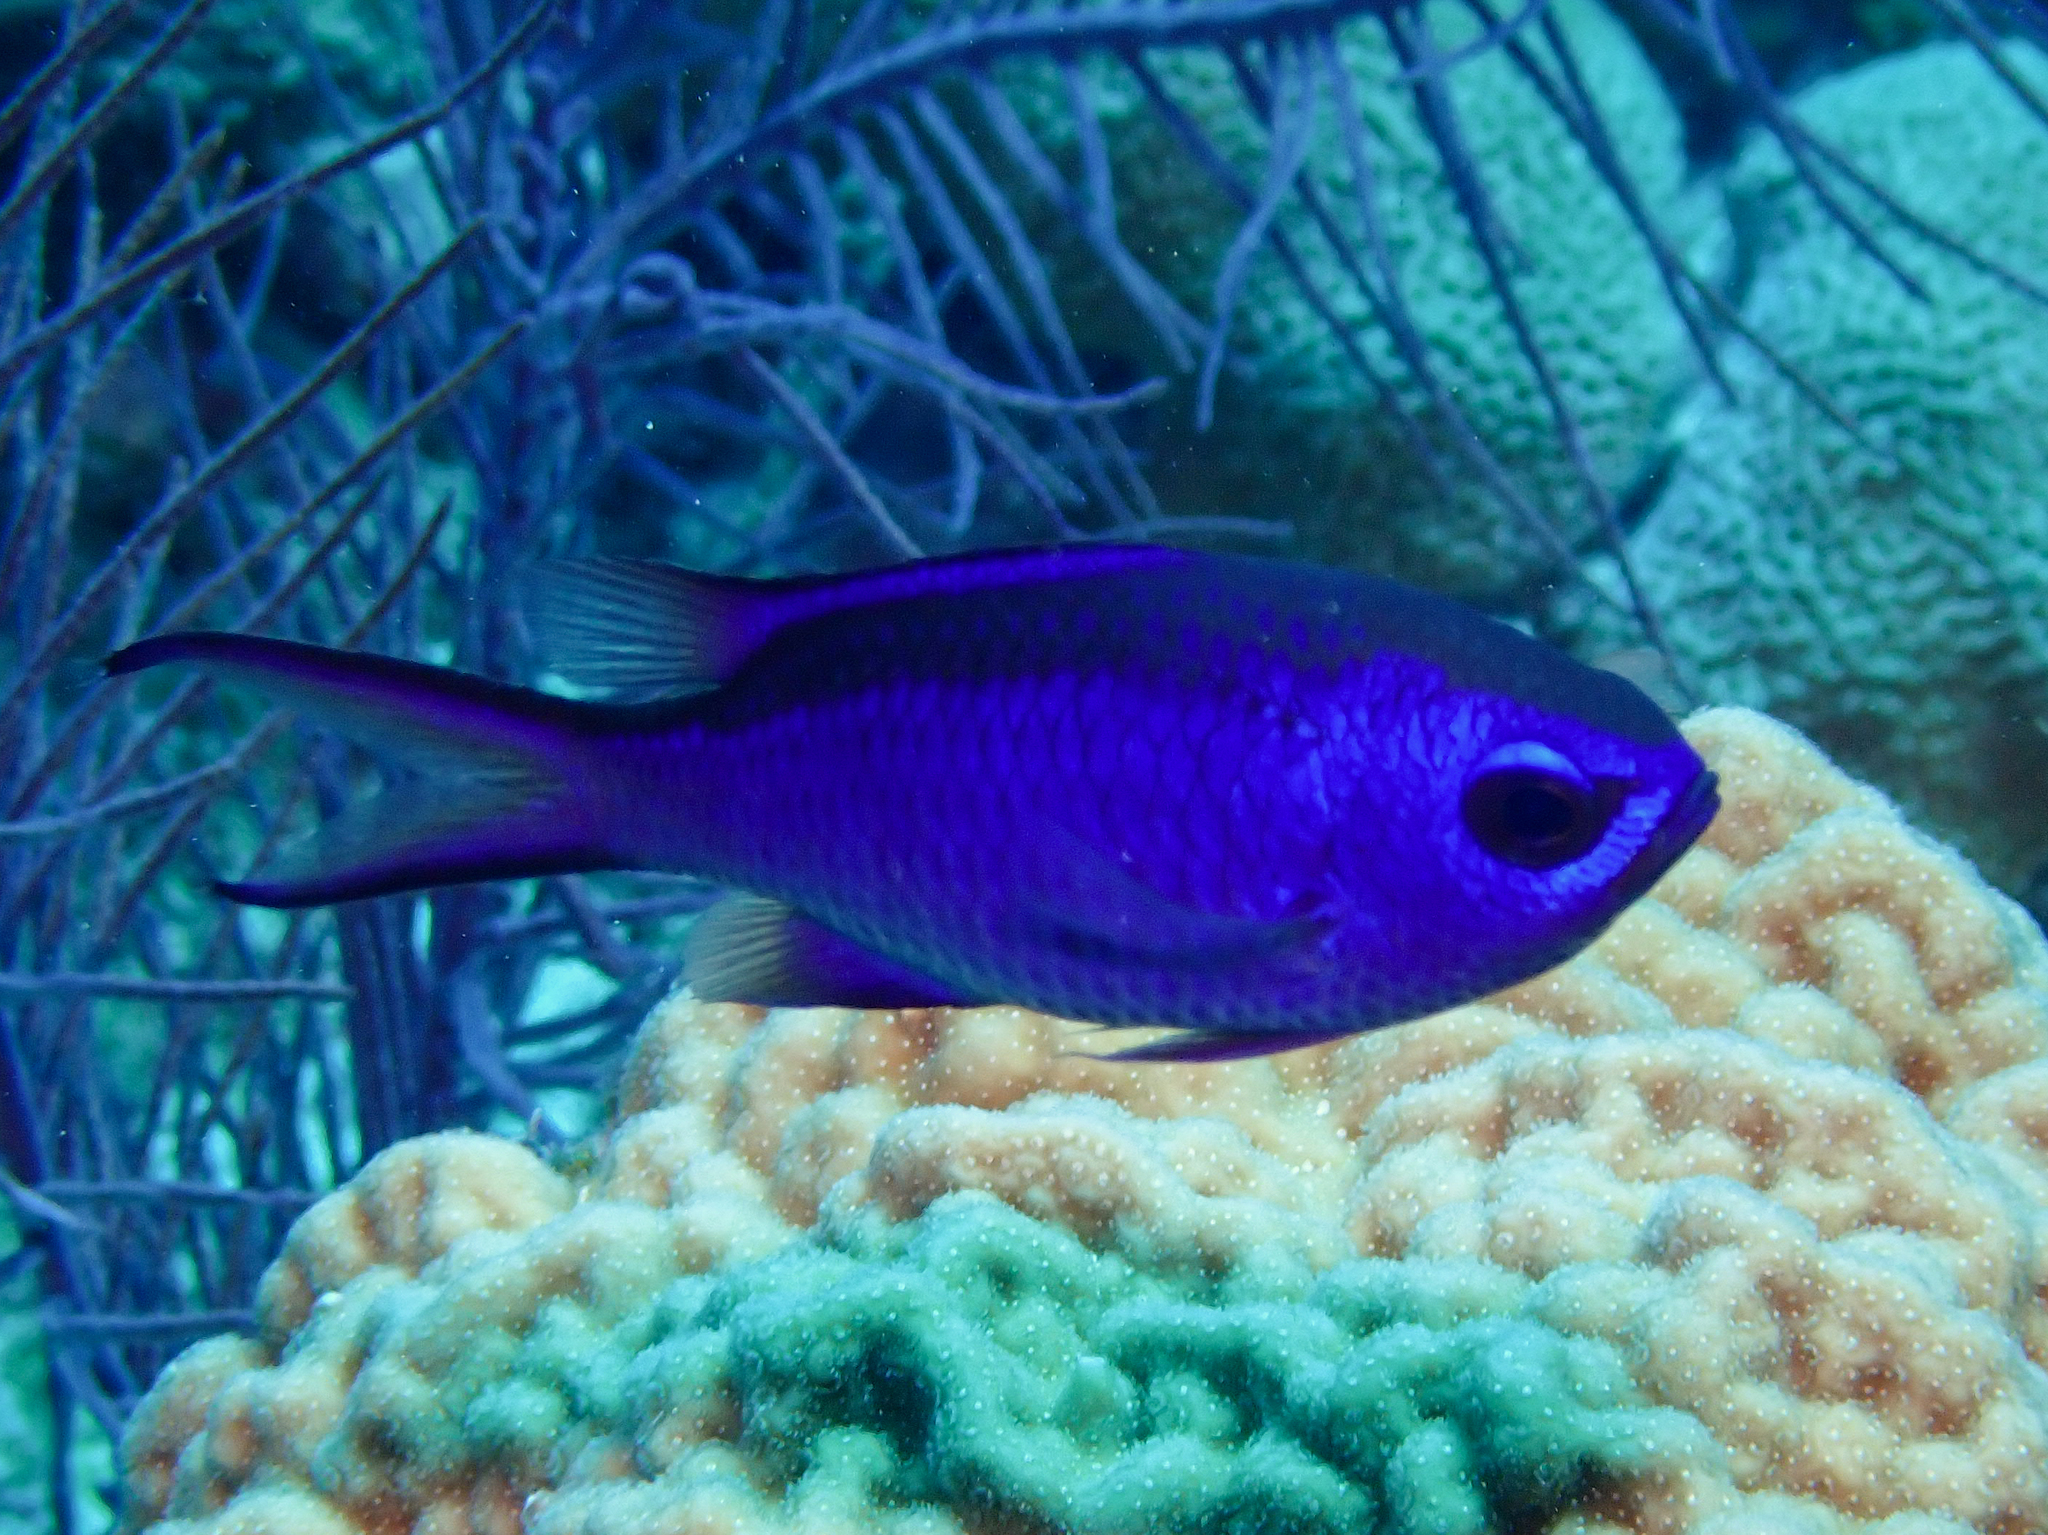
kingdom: Animalia
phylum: Chordata
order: Perciformes
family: Pomacentridae
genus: Chromis
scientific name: Chromis cyanea
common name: Blue chromis
